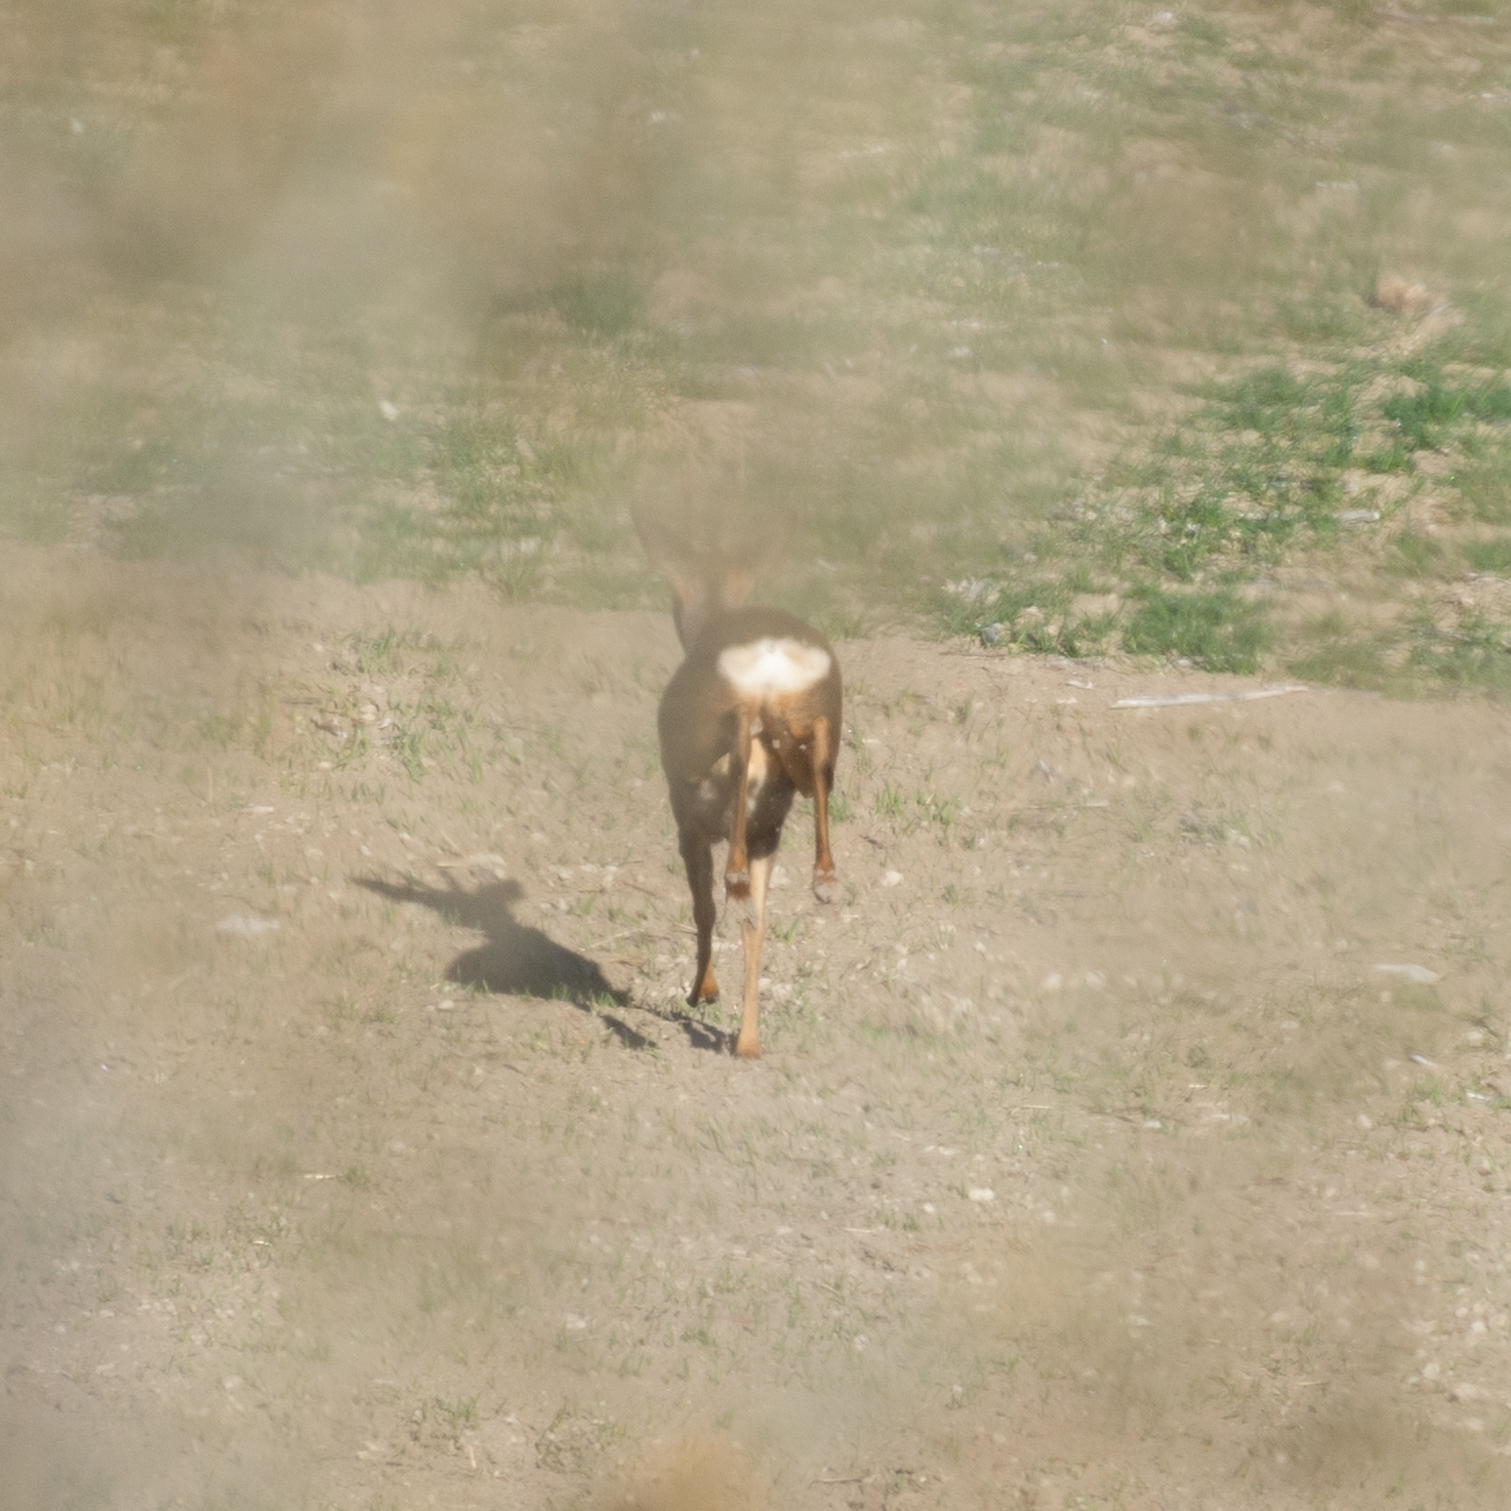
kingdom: Animalia
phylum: Chordata
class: Mammalia
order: Artiodactyla
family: Cervidae
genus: Capreolus
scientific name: Capreolus capreolus
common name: Western roe deer
